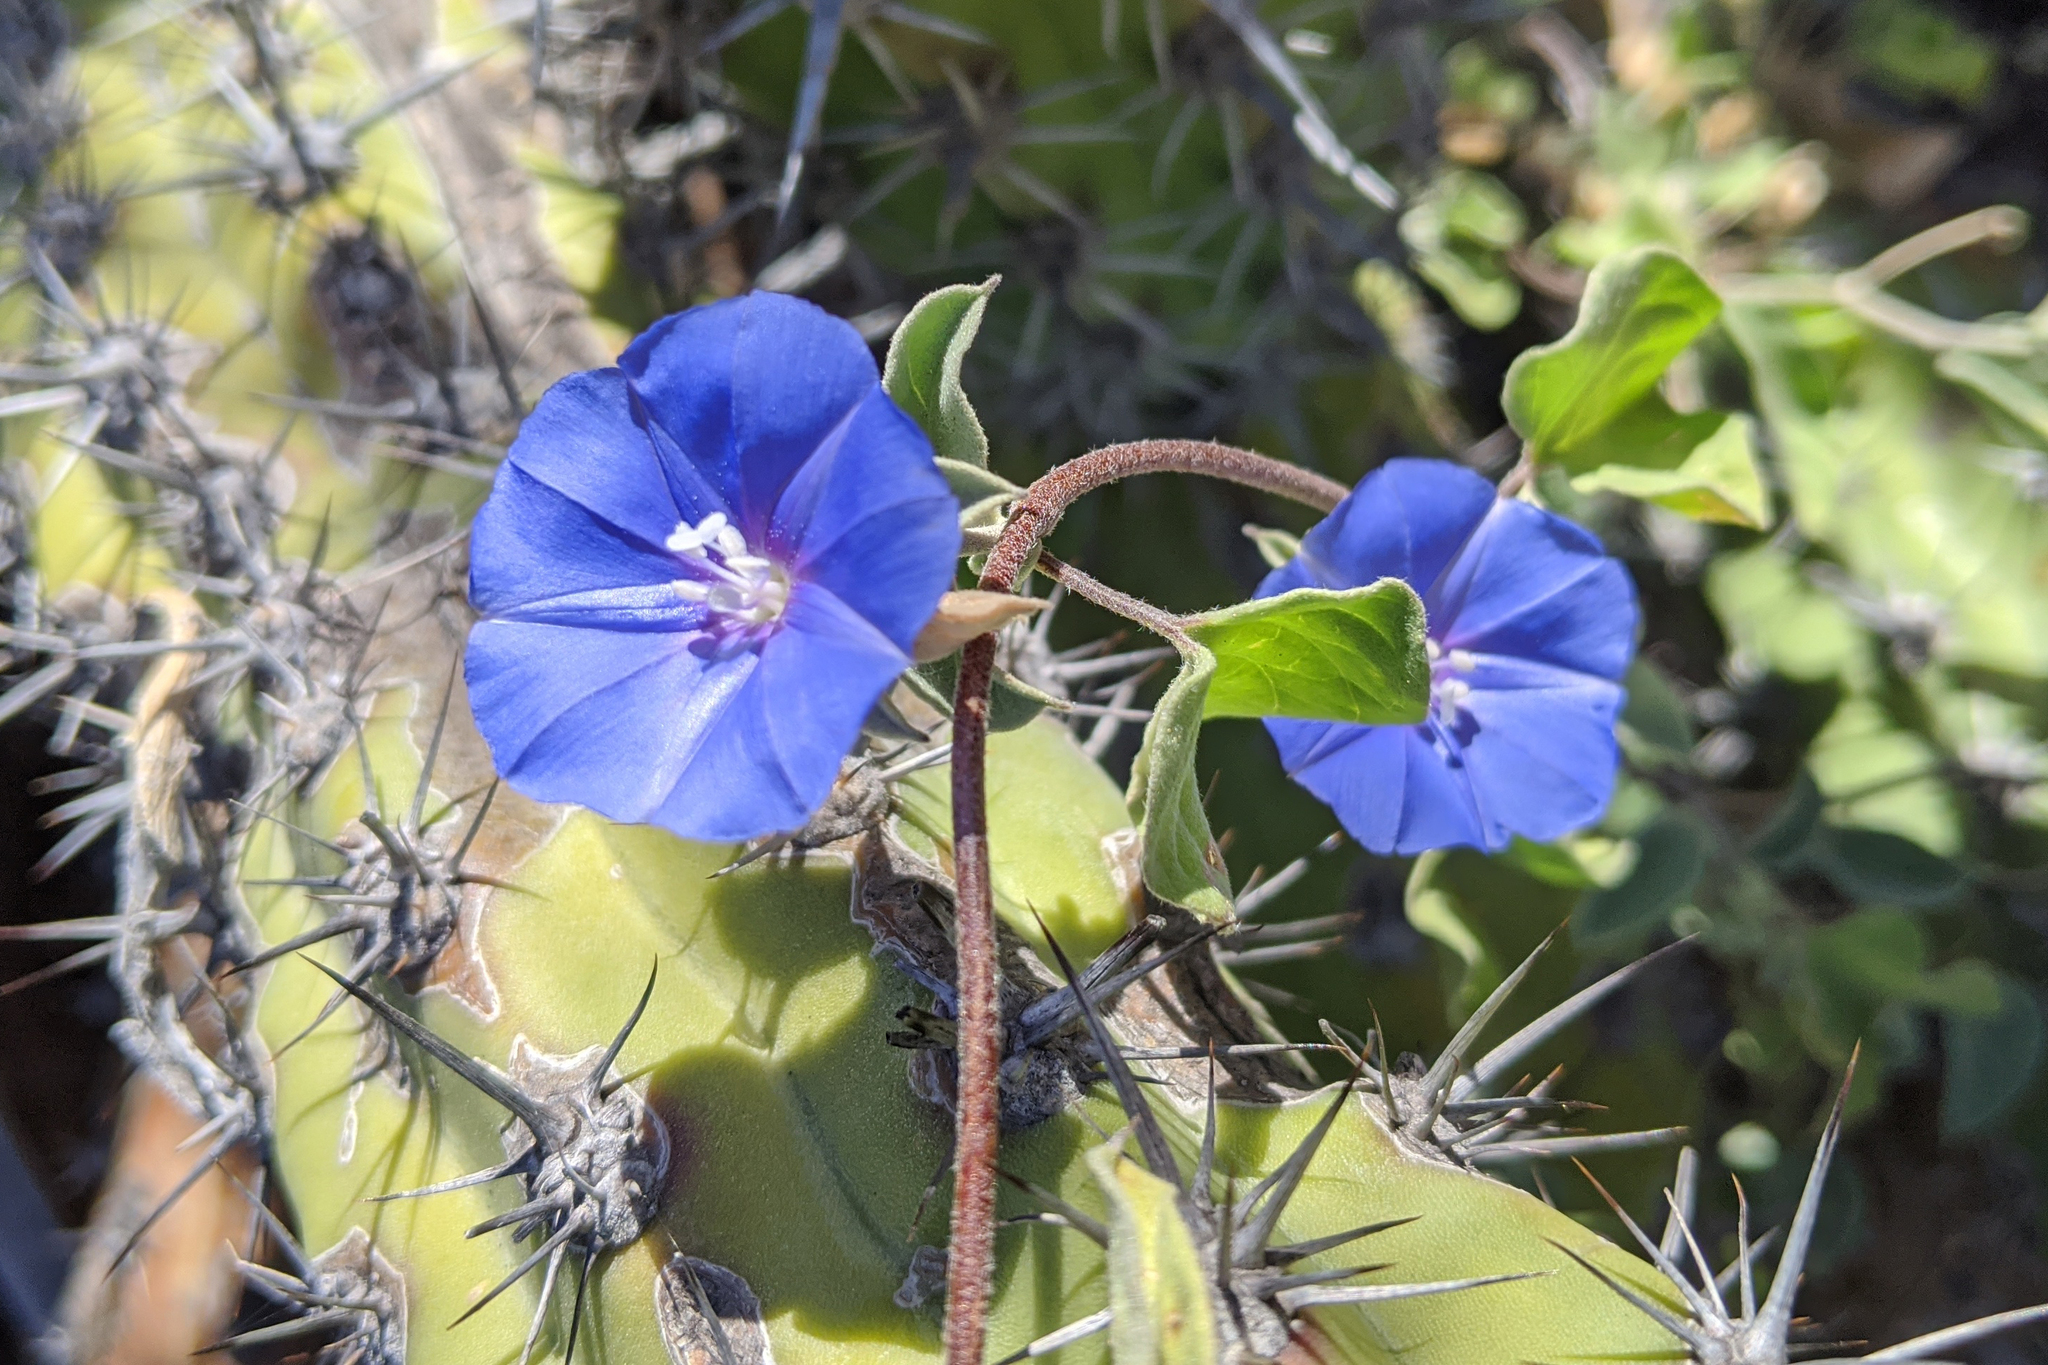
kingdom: Plantae
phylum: Tracheophyta
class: Magnoliopsida
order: Solanales
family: Convolvulaceae
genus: Jacquemontia
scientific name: Jacquemontia abutiloides
